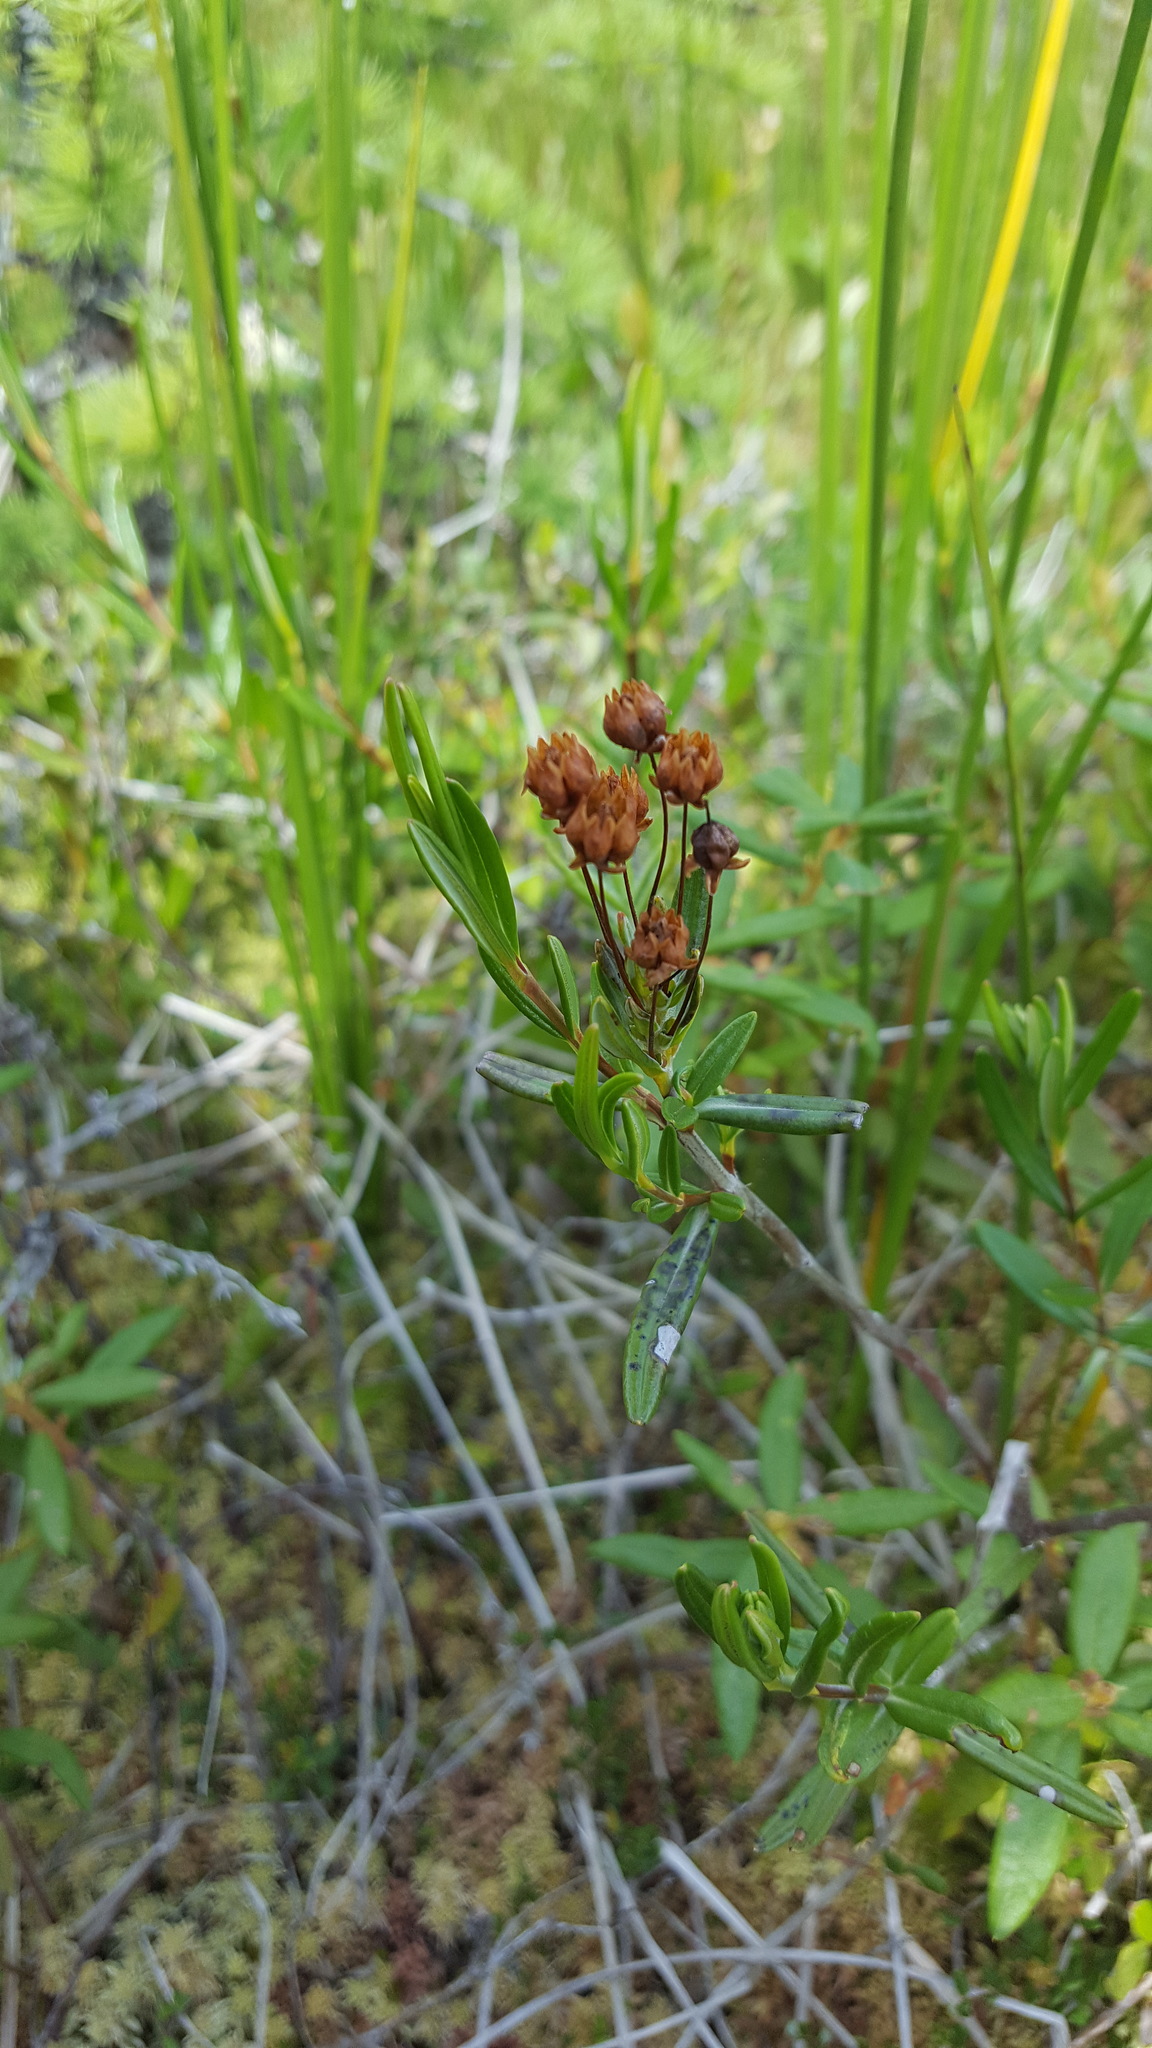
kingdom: Plantae
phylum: Tracheophyta
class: Magnoliopsida
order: Ericales
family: Ericaceae
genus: Kalmia
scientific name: Kalmia polifolia
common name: Bog-laurel
